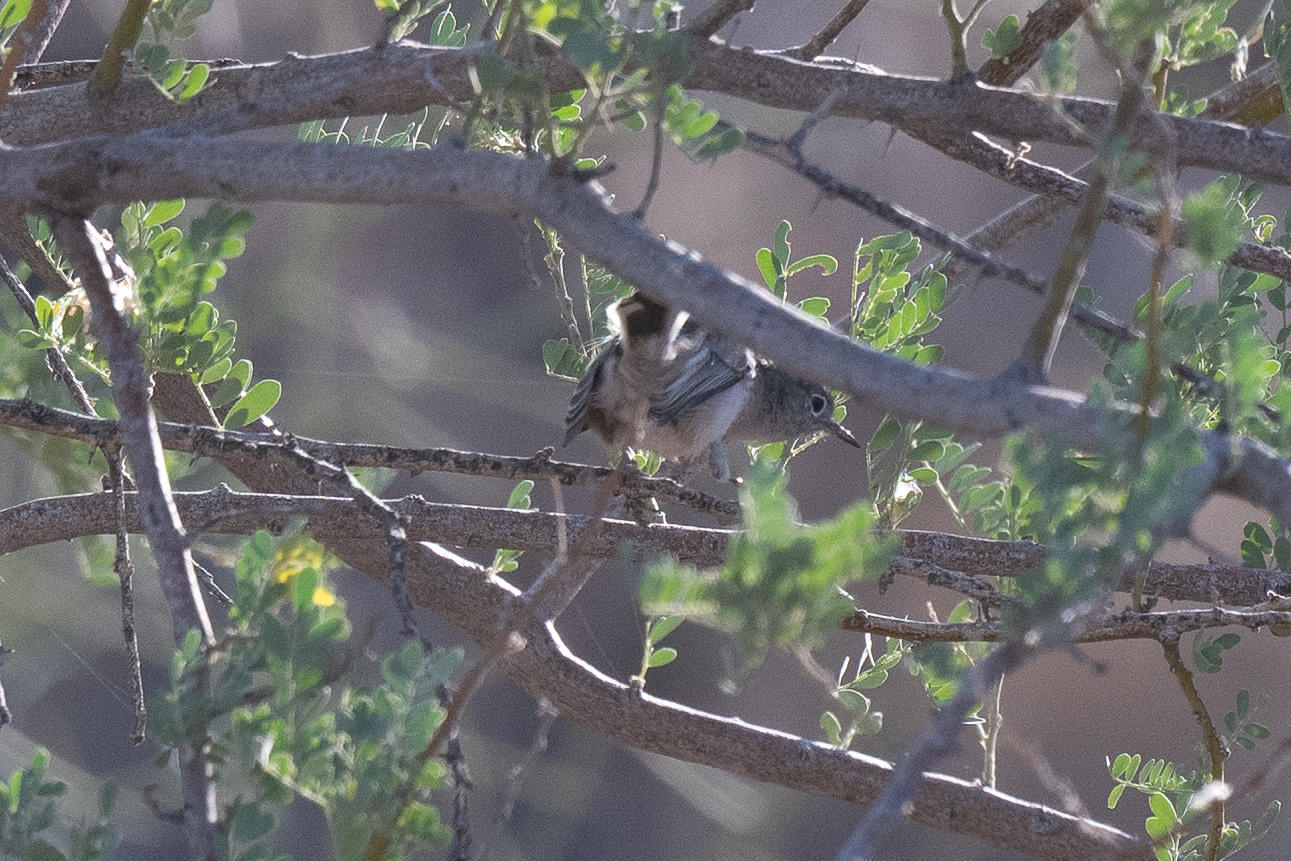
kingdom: Animalia
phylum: Chordata
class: Aves
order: Passeriformes
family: Polioptilidae
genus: Polioptila
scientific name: Polioptila melanura
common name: Black-tailed gnatcatcher
